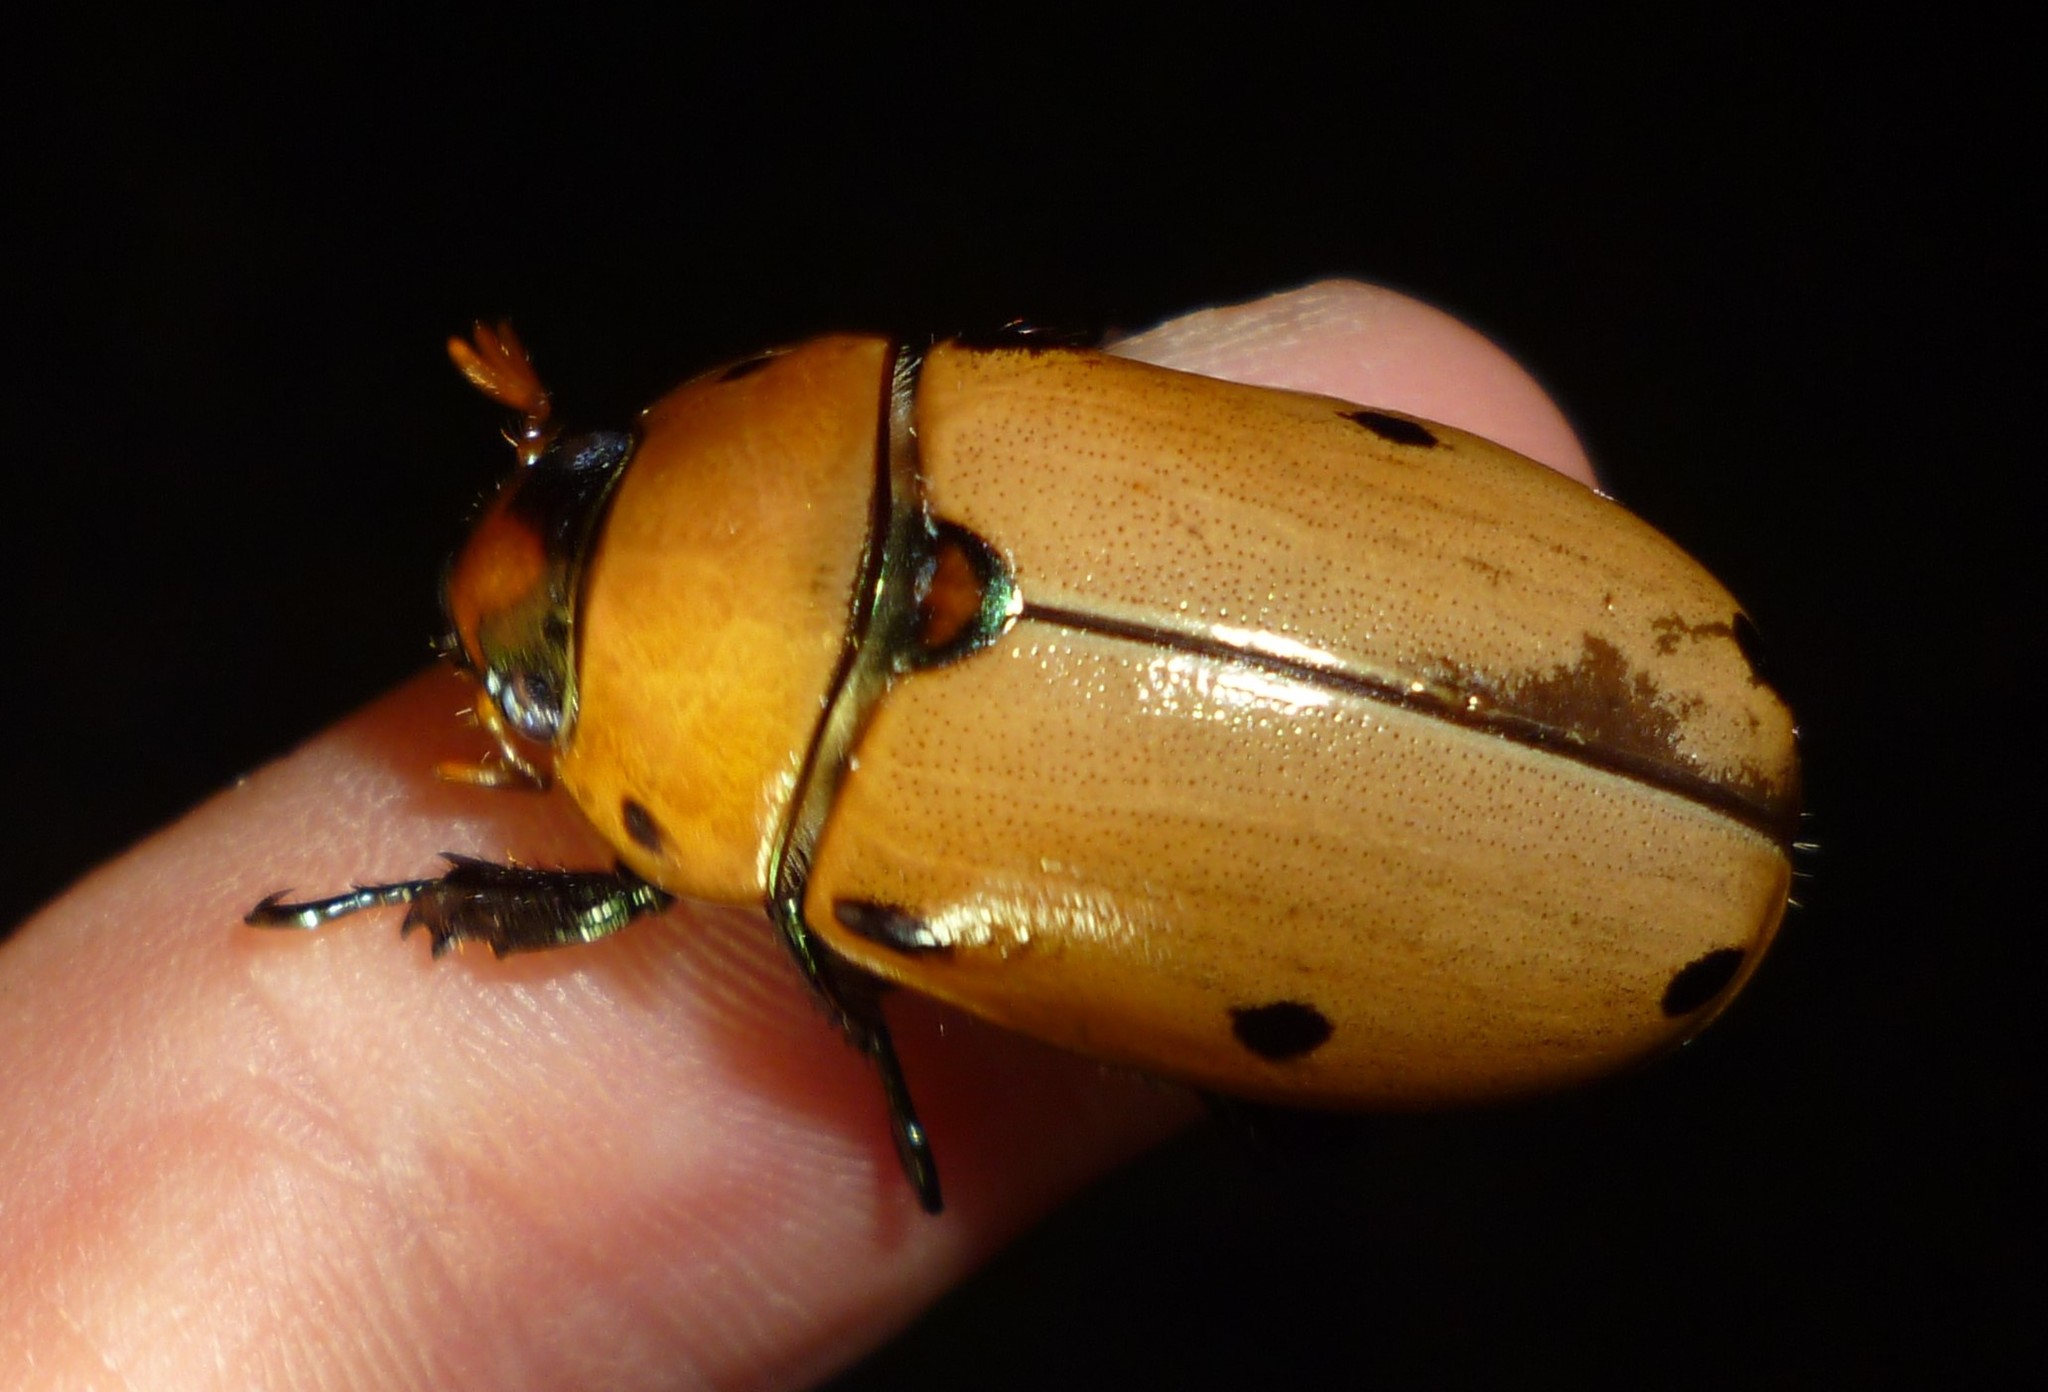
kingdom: Animalia
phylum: Arthropoda
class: Insecta
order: Coleoptera
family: Scarabaeidae
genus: Pelidnota
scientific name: Pelidnota punctata
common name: Grapevine beetle
